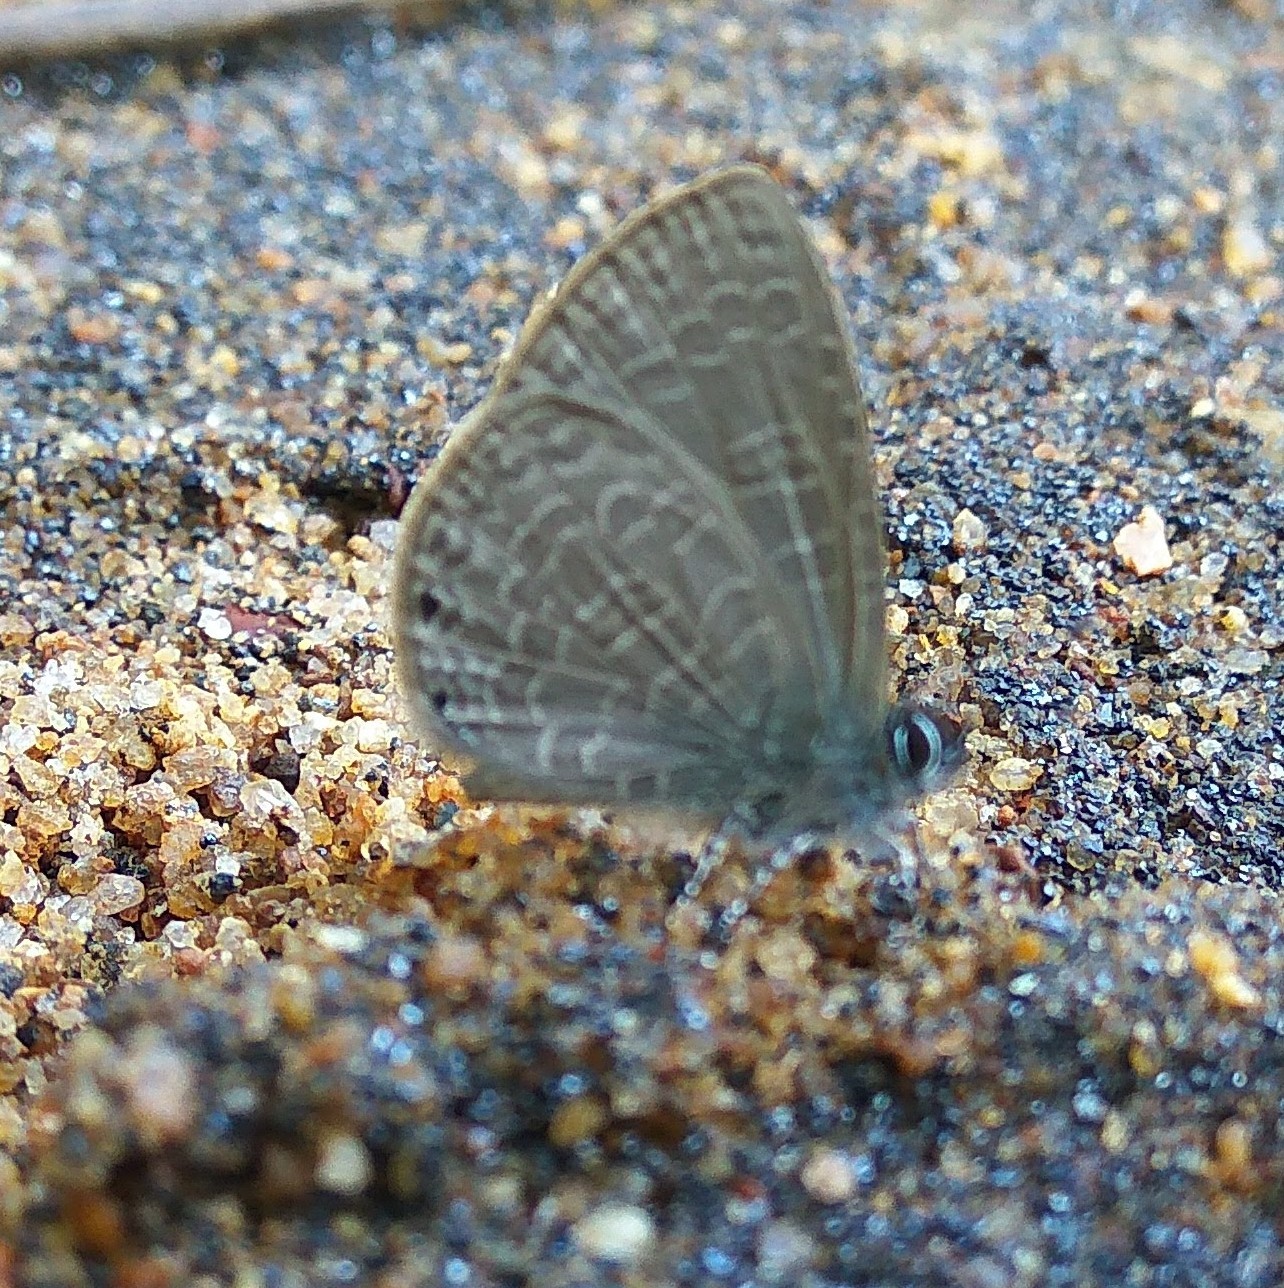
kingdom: Animalia
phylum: Arthropoda
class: Insecta
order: Lepidoptera
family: Lycaenidae
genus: Prosotas
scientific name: Prosotas dubiosa
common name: Tailless lineblue
